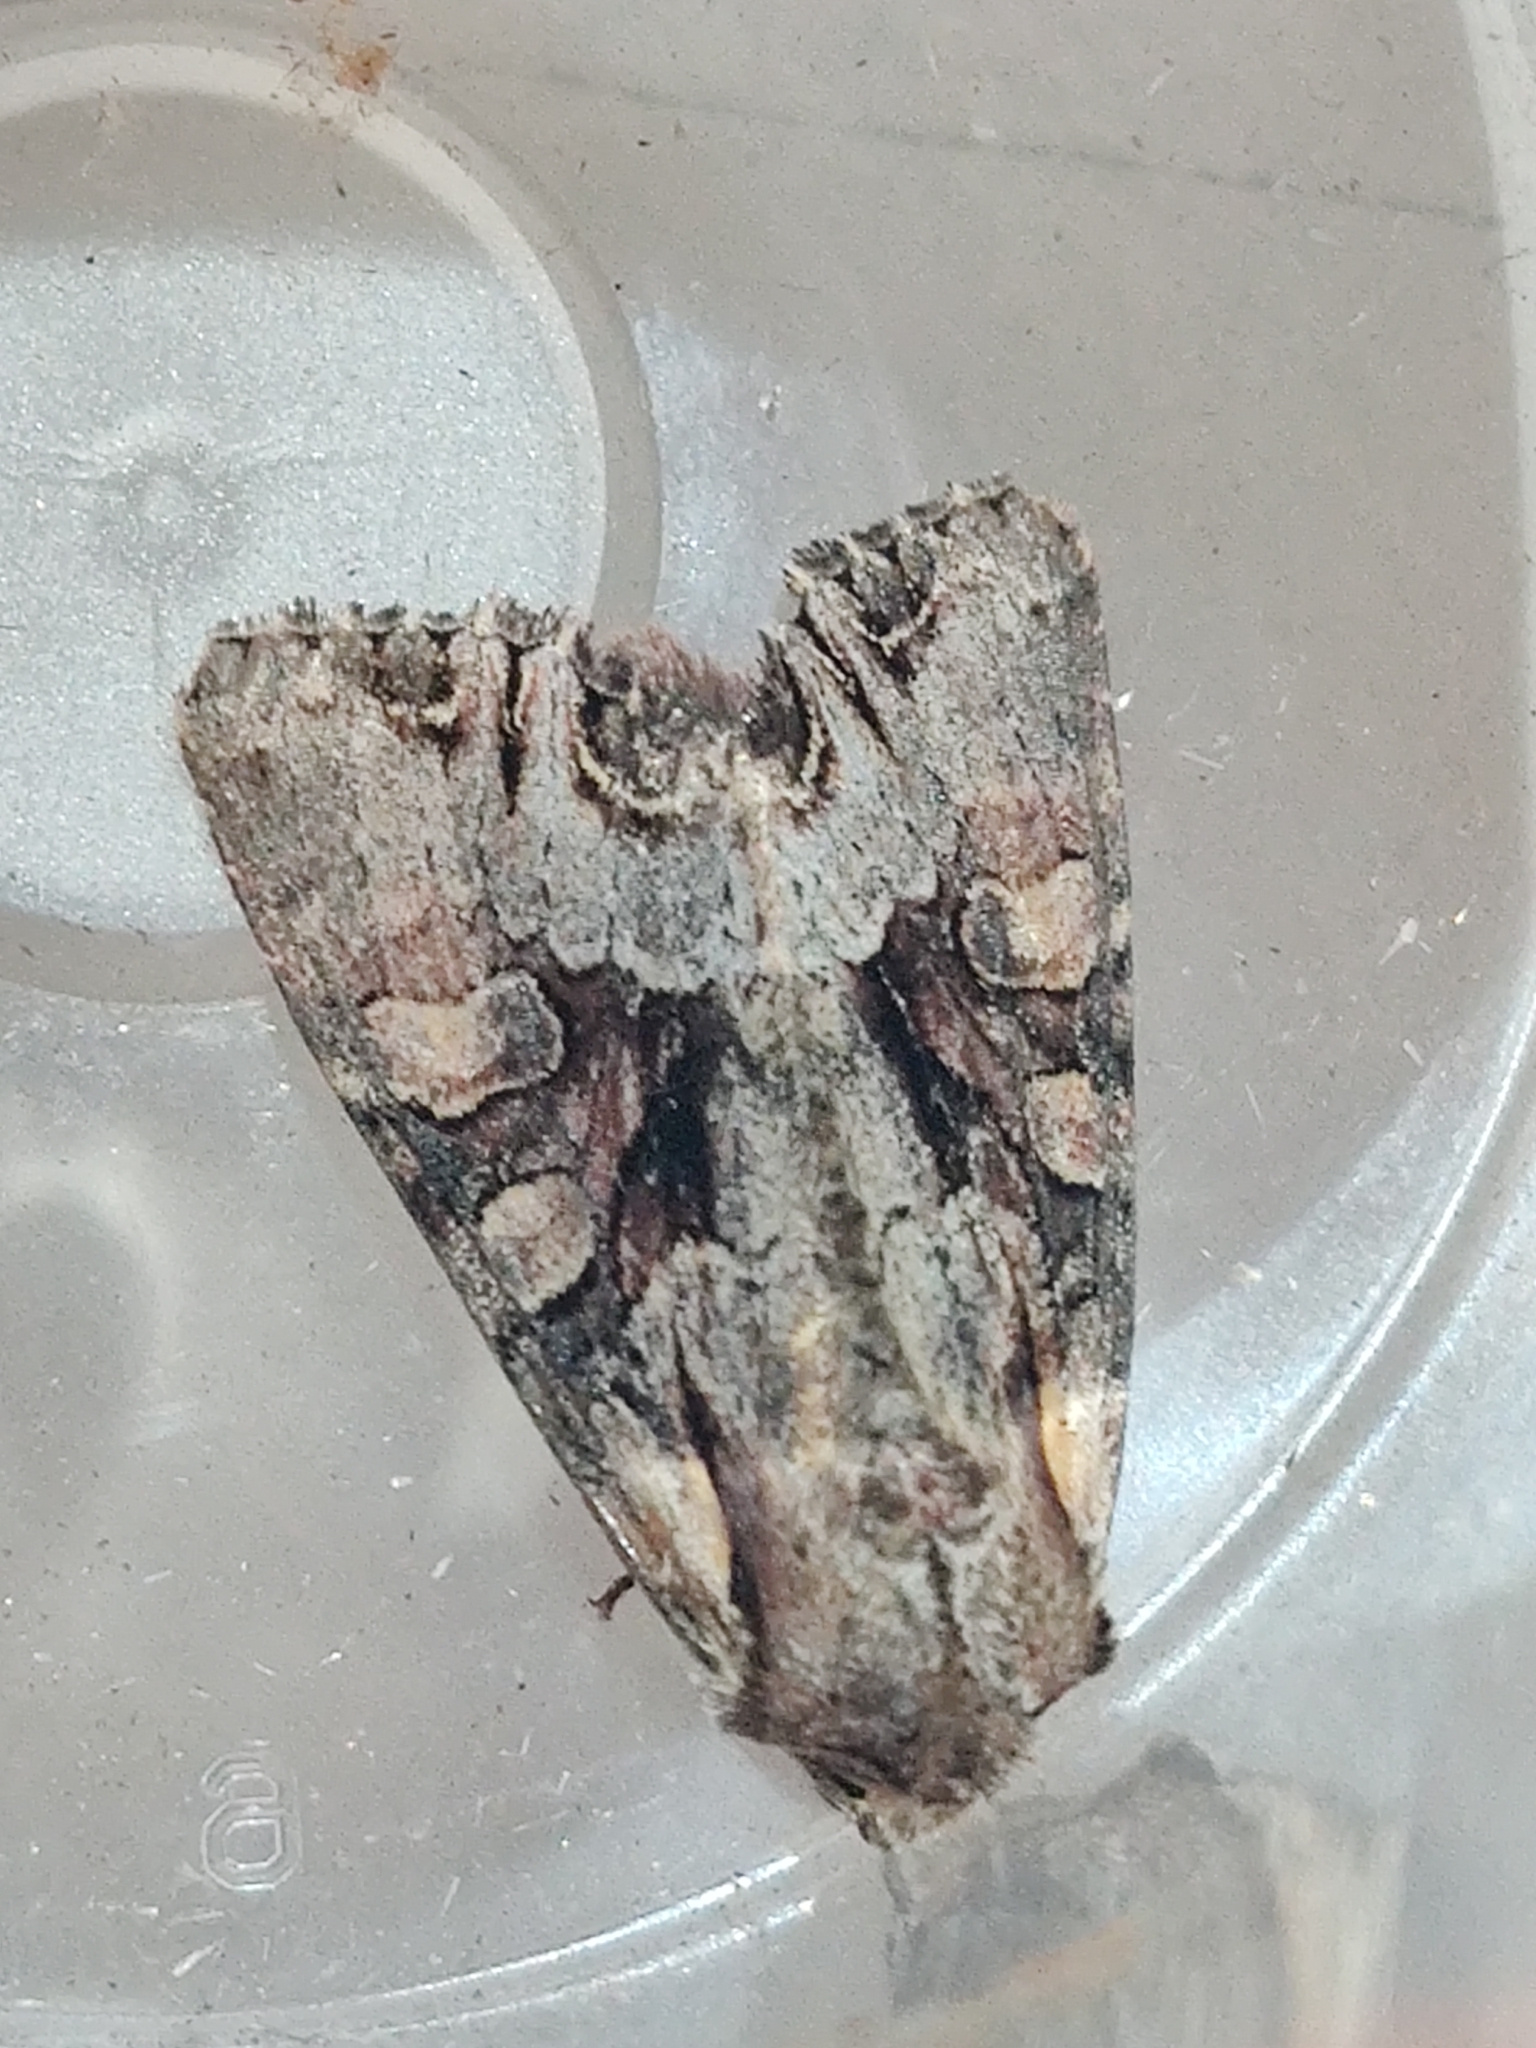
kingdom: Animalia
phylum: Arthropoda
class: Insecta
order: Lepidoptera
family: Noctuidae
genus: Lacanobia
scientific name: Lacanobia w-latinum
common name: Light brocade
